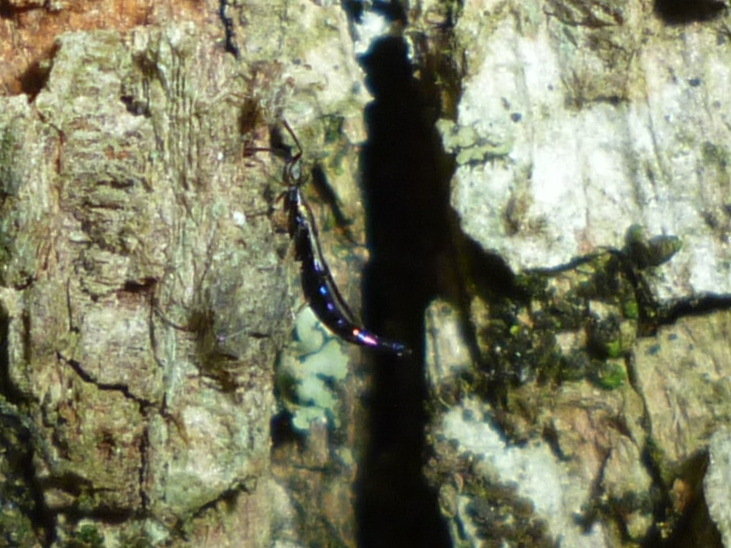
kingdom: Animalia
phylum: Arthropoda
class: Insecta
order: Hymenoptera
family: Eupelmidae
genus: Brasema
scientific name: Brasema rhadinosa
